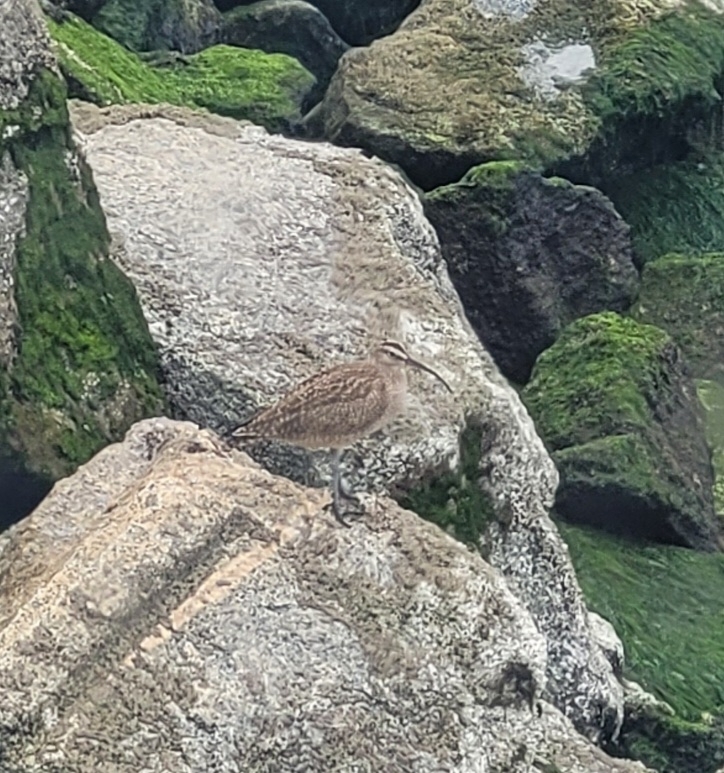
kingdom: Animalia
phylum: Chordata
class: Aves
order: Charadriiformes
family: Scolopacidae
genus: Numenius
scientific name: Numenius hudsonicus
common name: Hudsonian whimbrel
